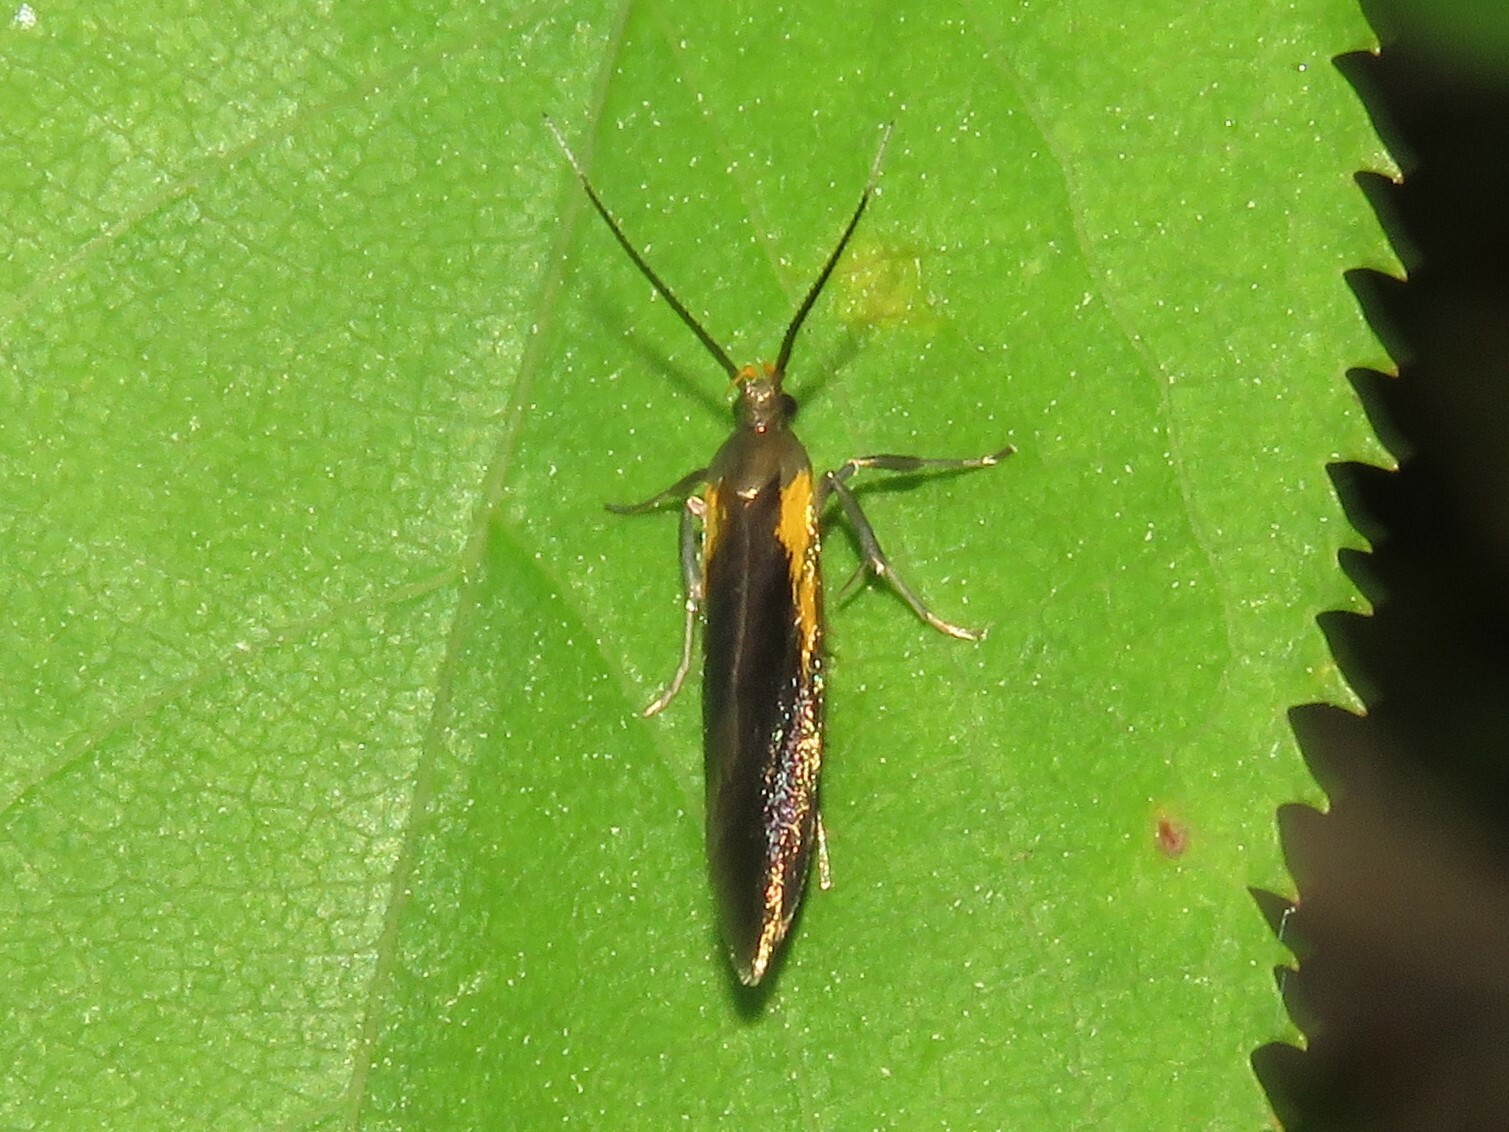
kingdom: Animalia
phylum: Arthropoda
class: Insecta
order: Lepidoptera
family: Oecophoridae
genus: Mathildana
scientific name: Mathildana newmanella
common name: Newman's mathildana moth
